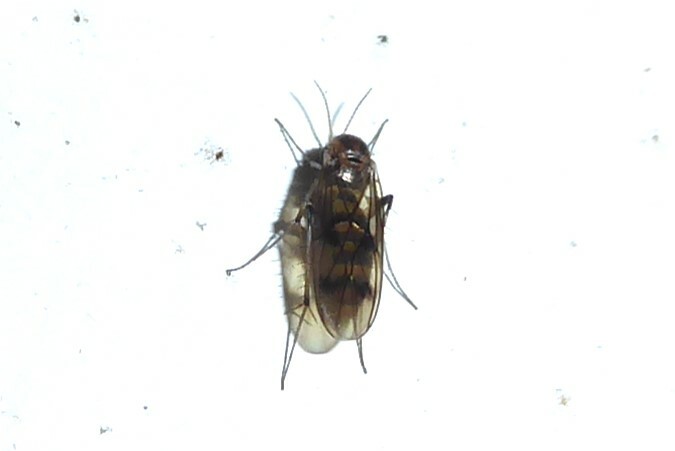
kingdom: Animalia
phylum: Arthropoda
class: Insecta
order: Diptera
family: Mycetophilidae
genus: Anomalomyia
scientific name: Anomalomyia guttata
